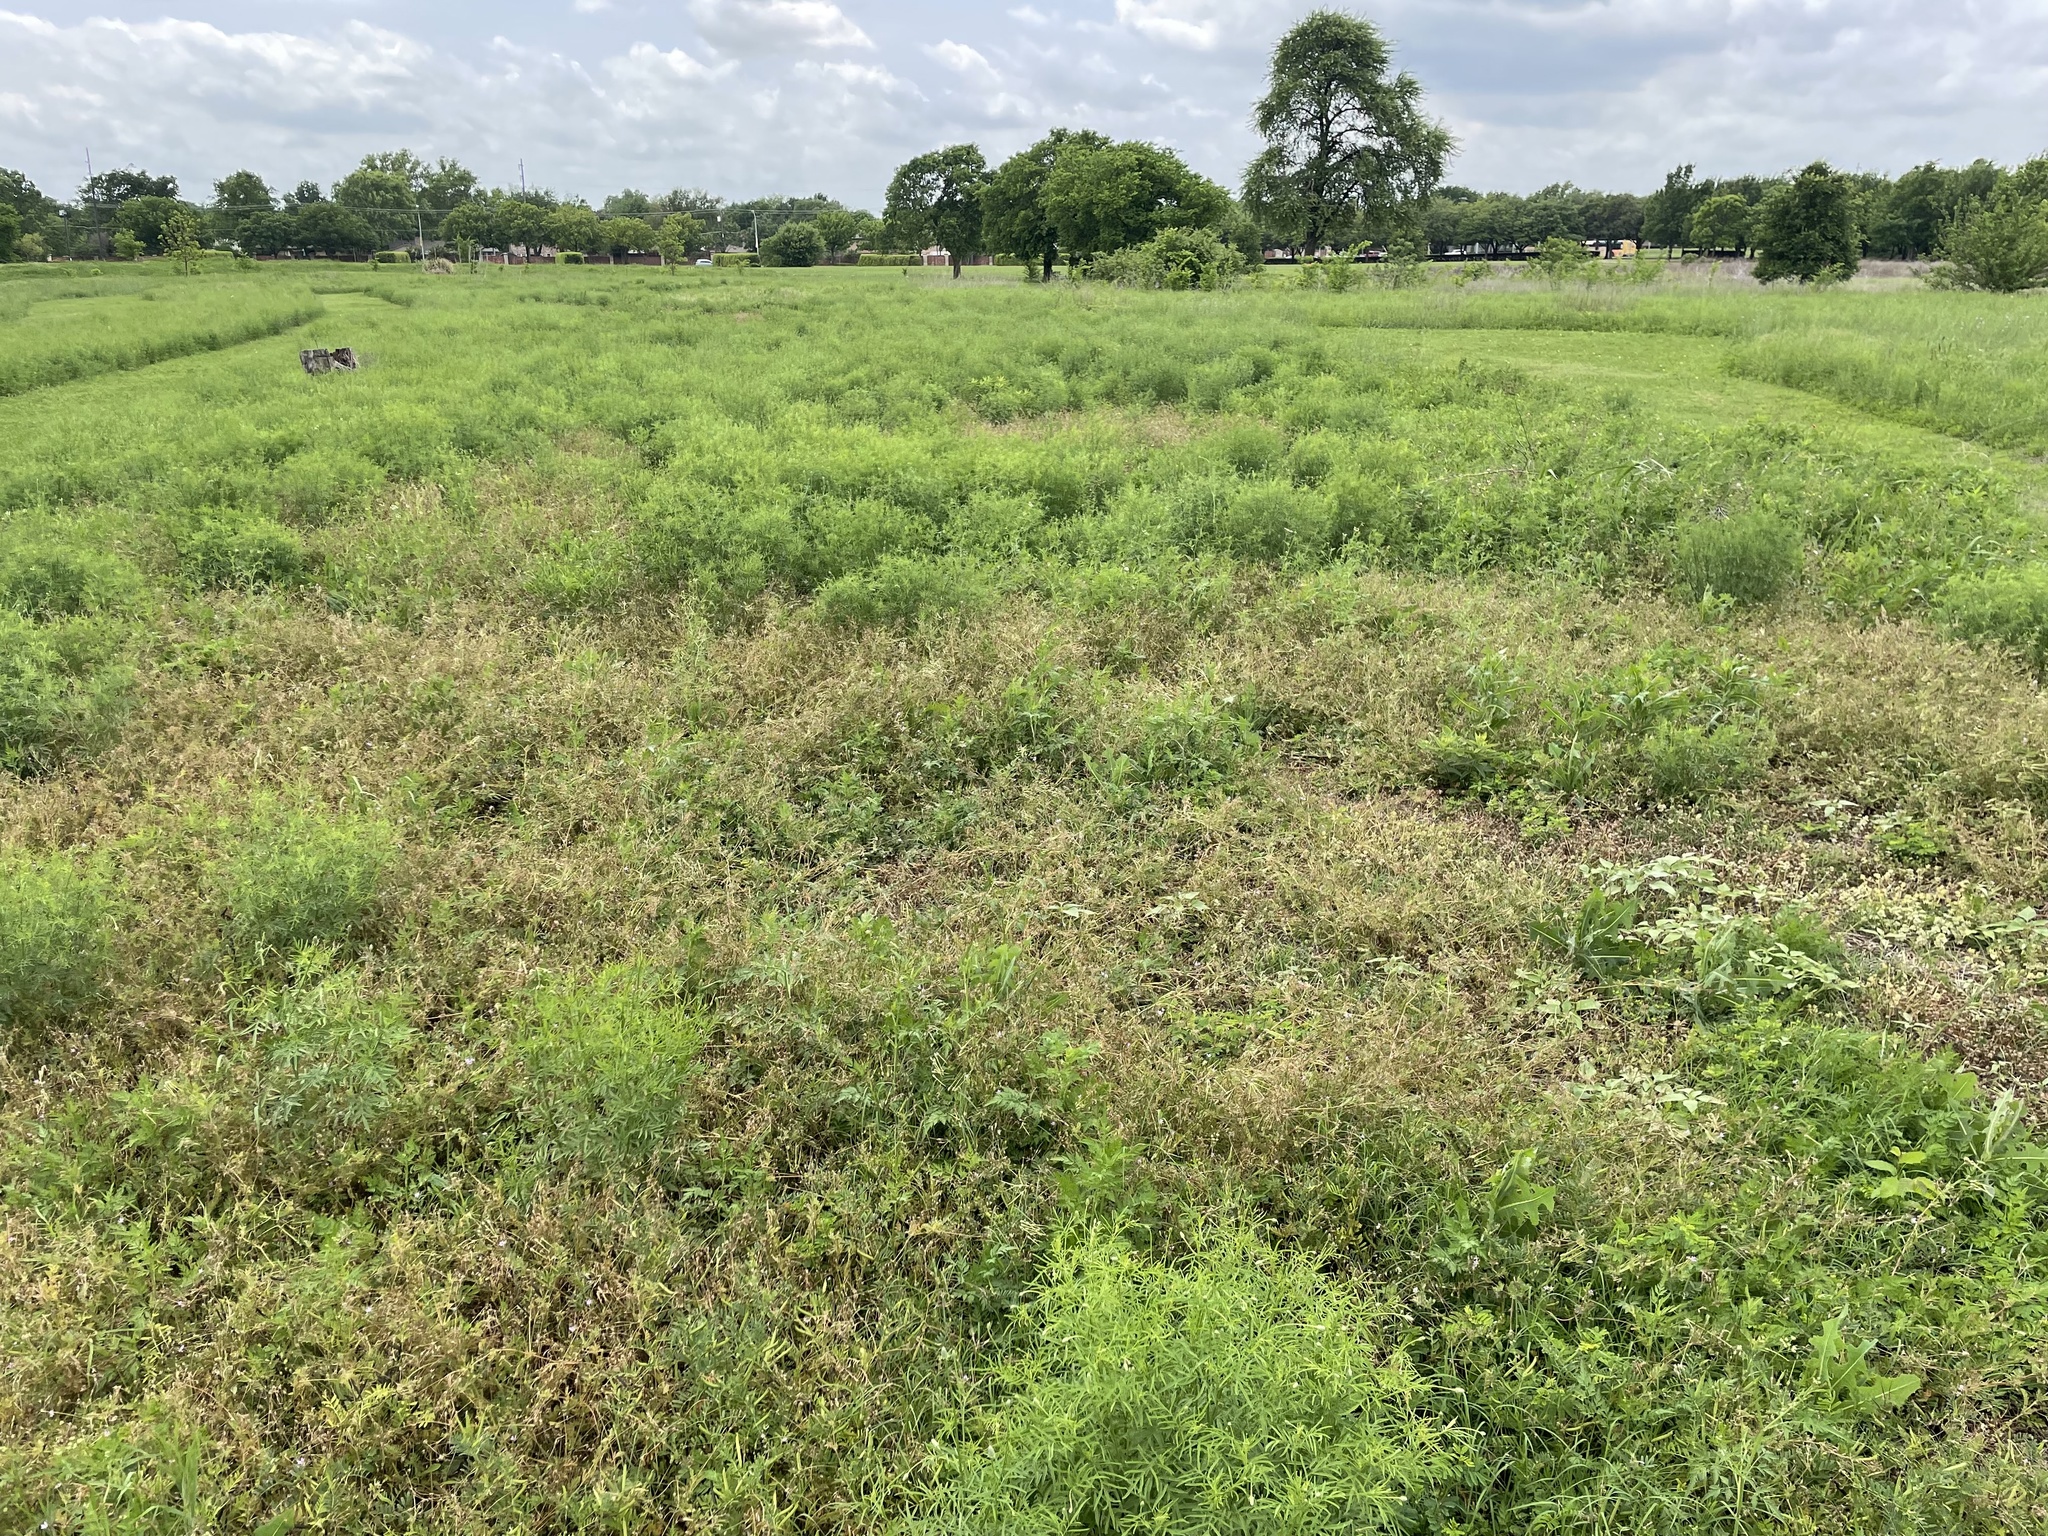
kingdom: Plantae
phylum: Tracheophyta
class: Magnoliopsida
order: Geraniales
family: Geraniaceae
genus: Erodium
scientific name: Erodium cicutarium
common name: Common stork's-bill
